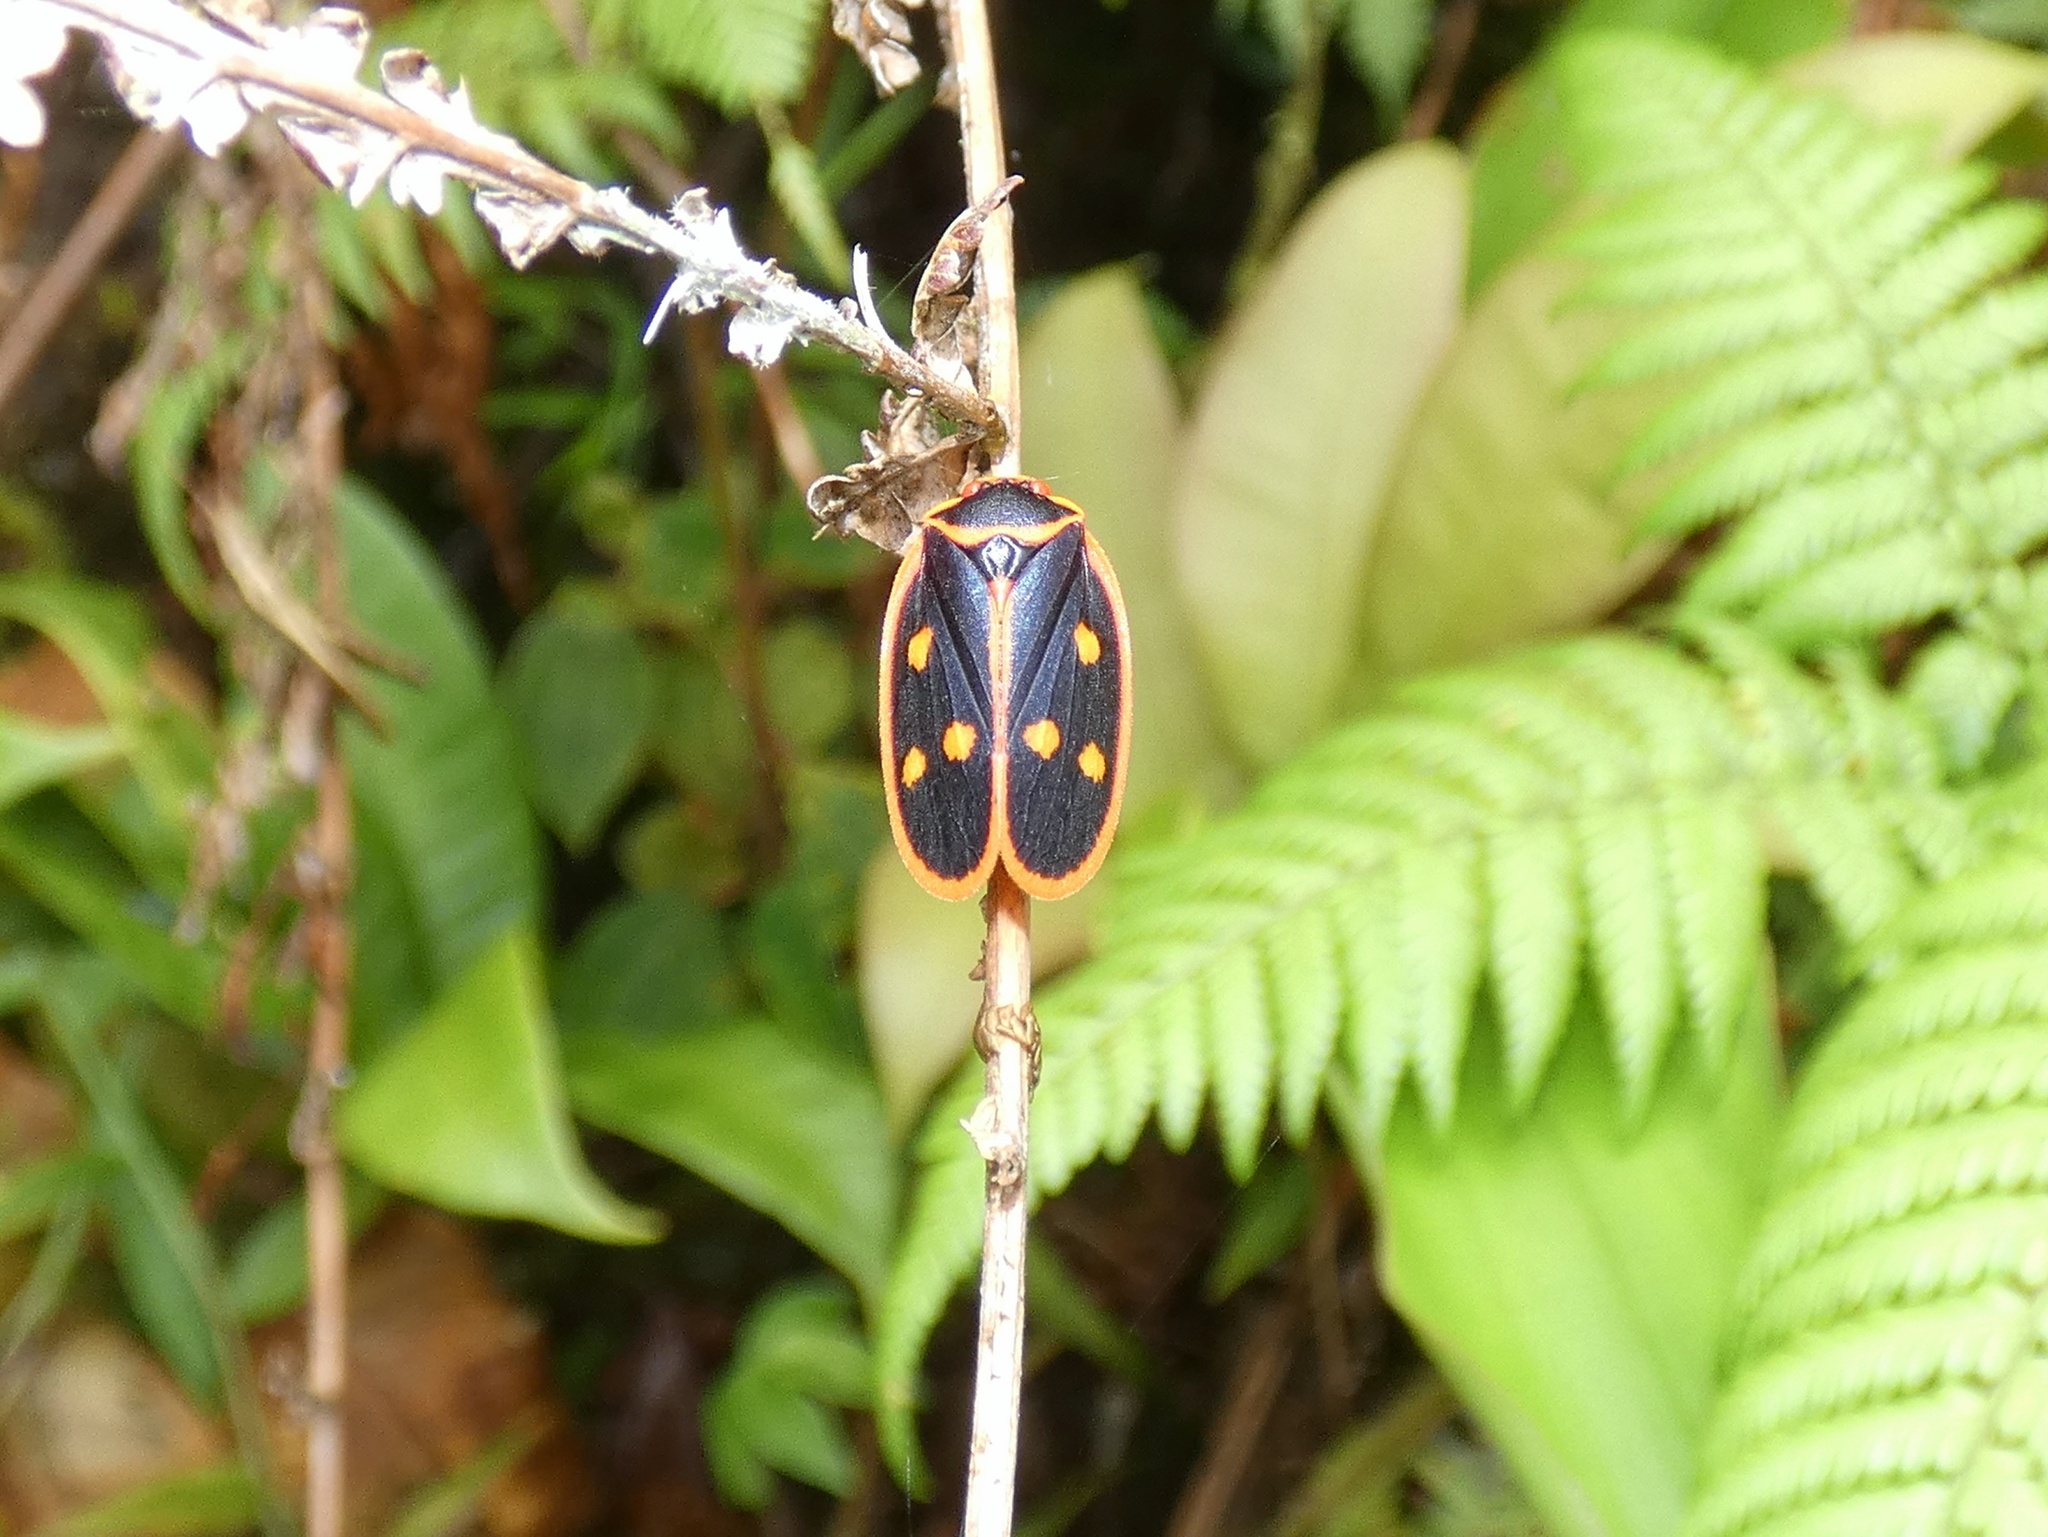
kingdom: Animalia
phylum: Arthropoda
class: Insecta
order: Hemiptera
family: Cercopidae
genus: Iphirhina
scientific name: Iphirhina perfecta
